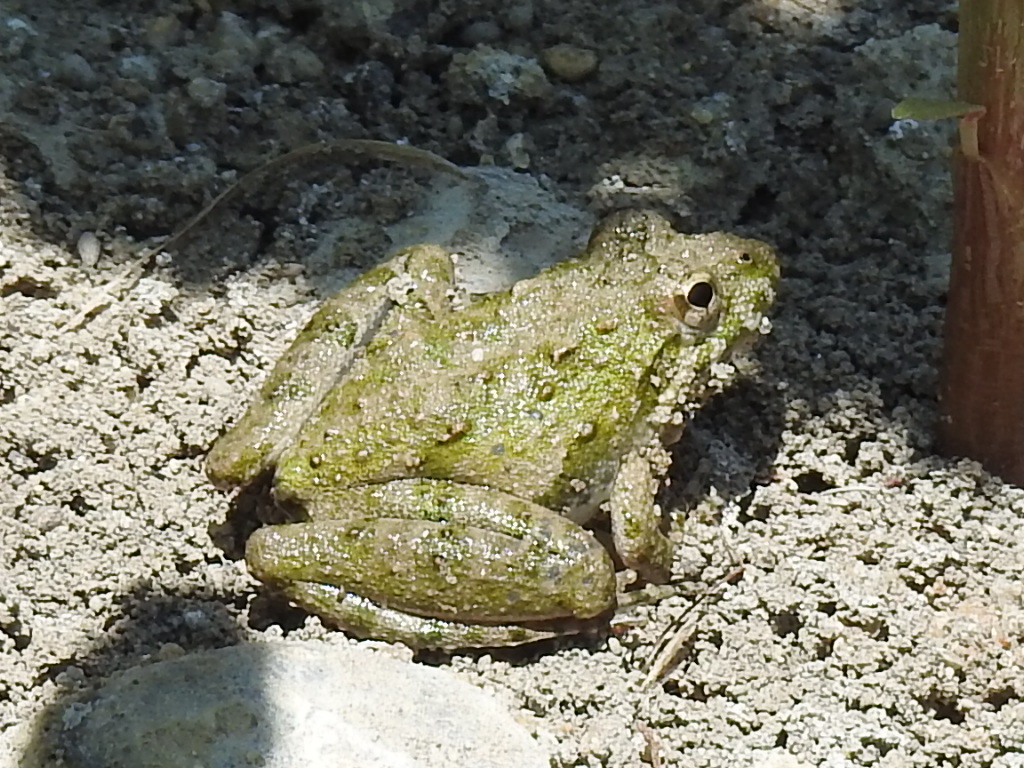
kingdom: Animalia
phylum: Chordata
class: Amphibia
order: Anura
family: Hylidae
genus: Acris
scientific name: Acris blanchardi
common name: Blanchard's cricket frog
